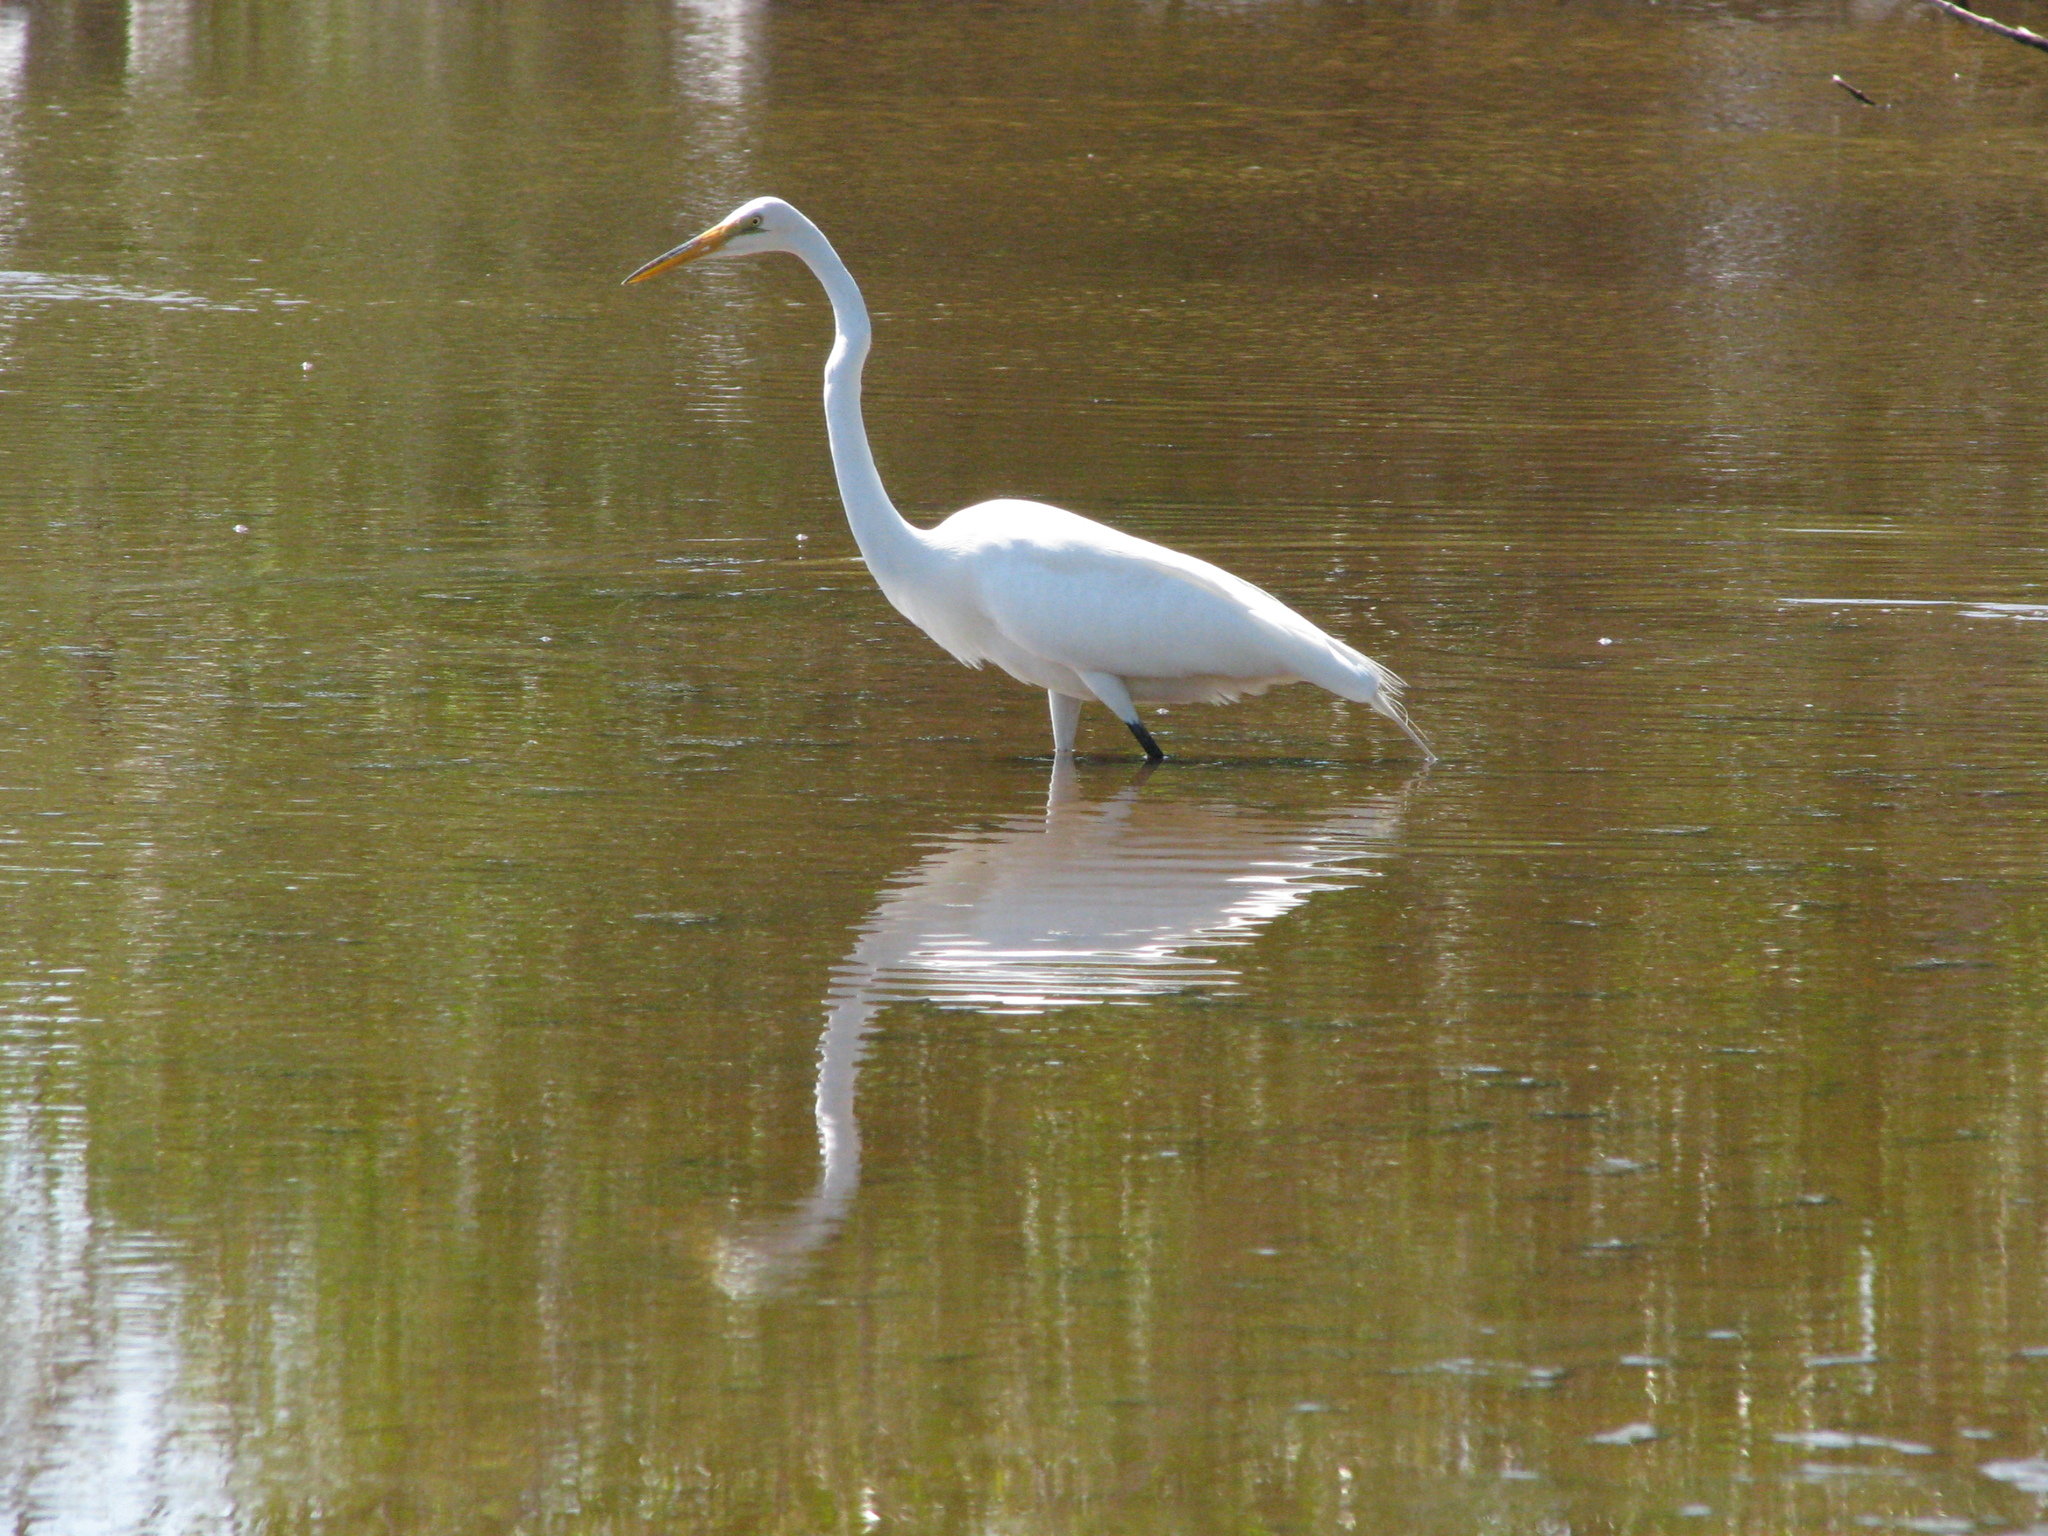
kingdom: Animalia
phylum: Chordata
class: Aves
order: Pelecaniformes
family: Ardeidae
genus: Ardea
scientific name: Ardea alba
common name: Great egret
